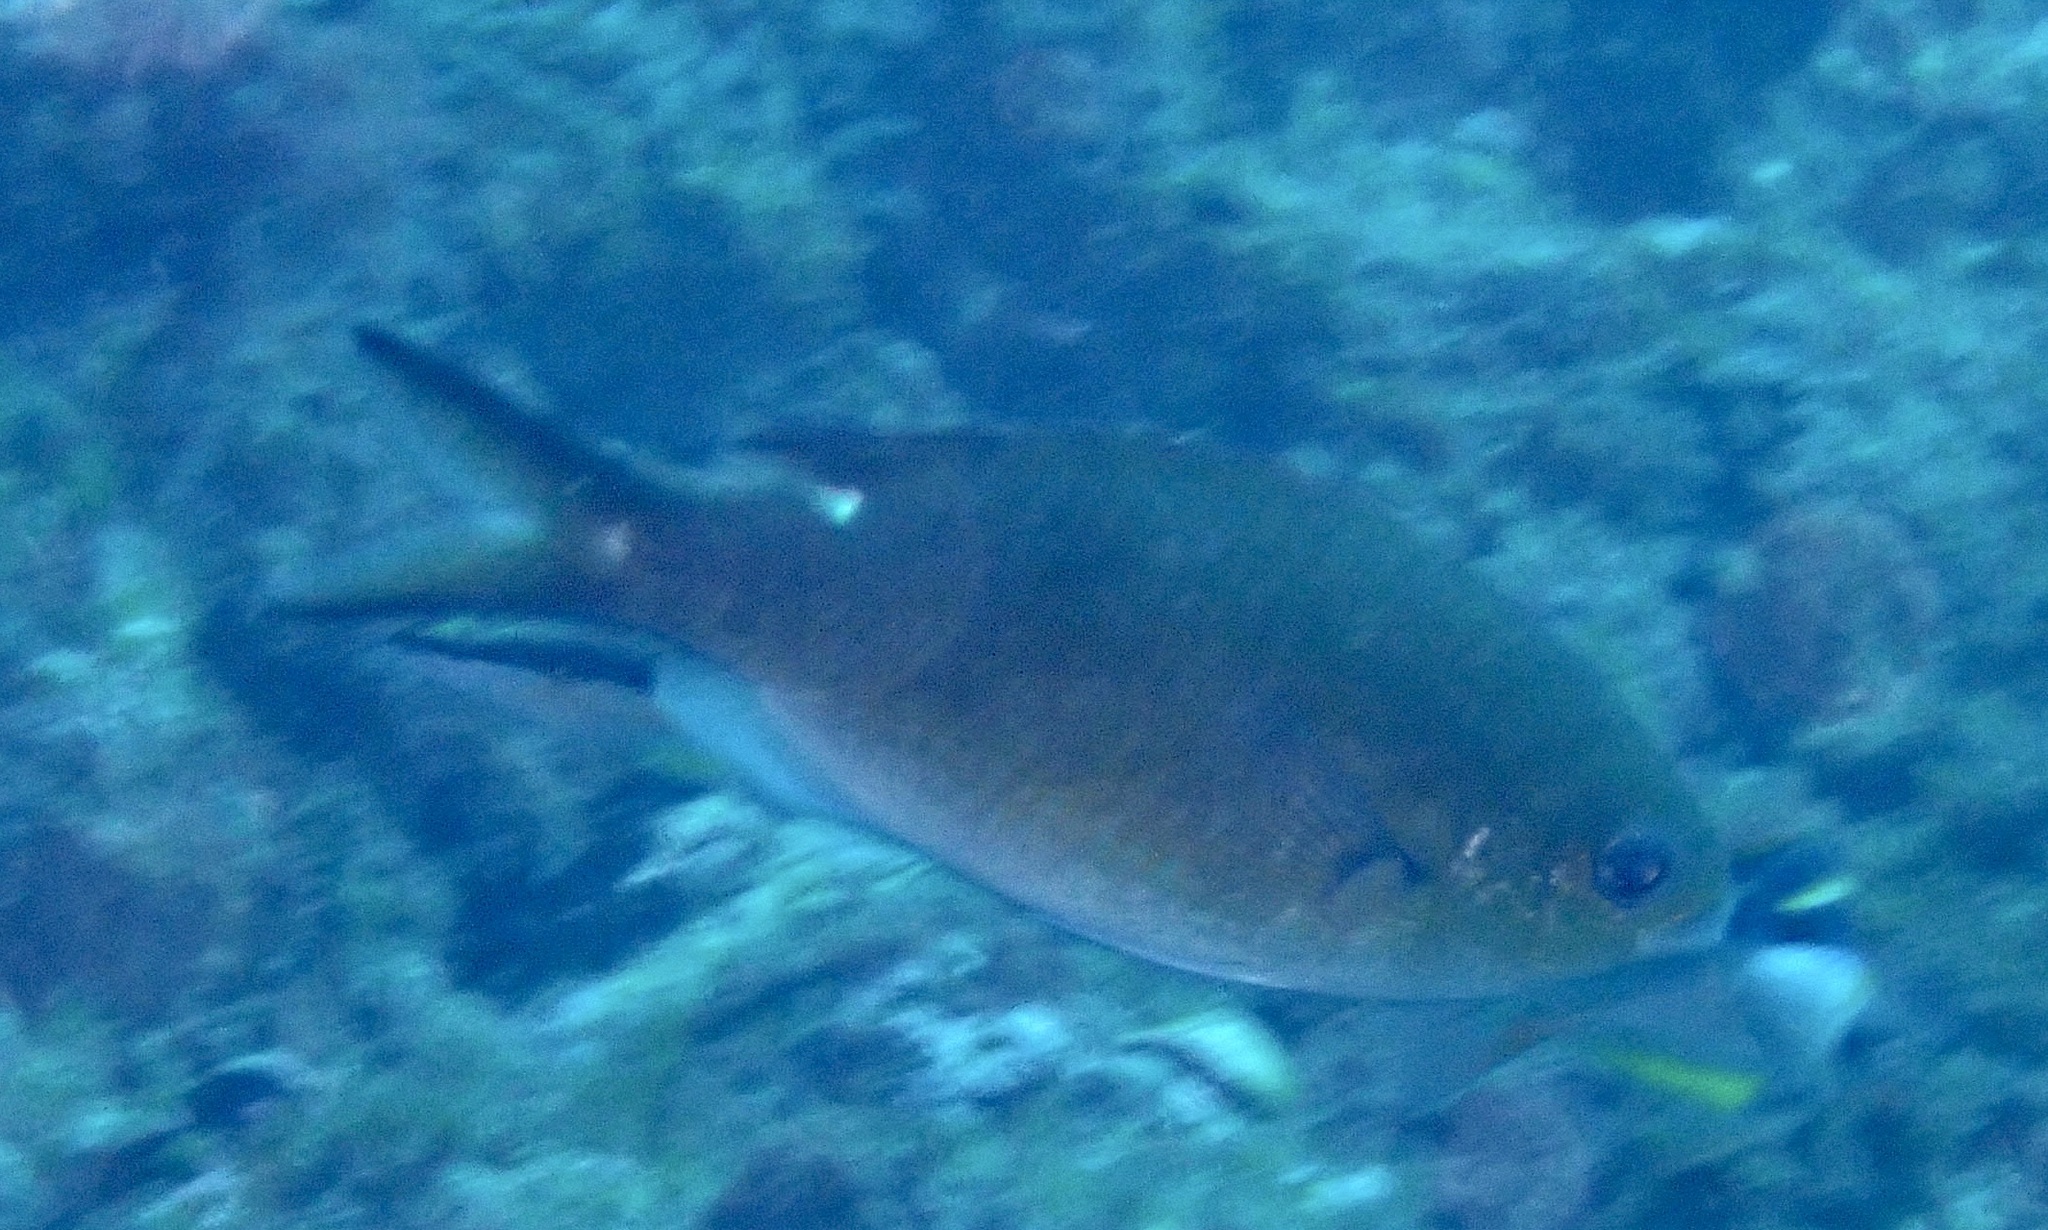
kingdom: Animalia
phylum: Chordata
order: Perciformes
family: Pomacentridae
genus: Chromis
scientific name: Chromis multilineata
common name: Brown chromis
